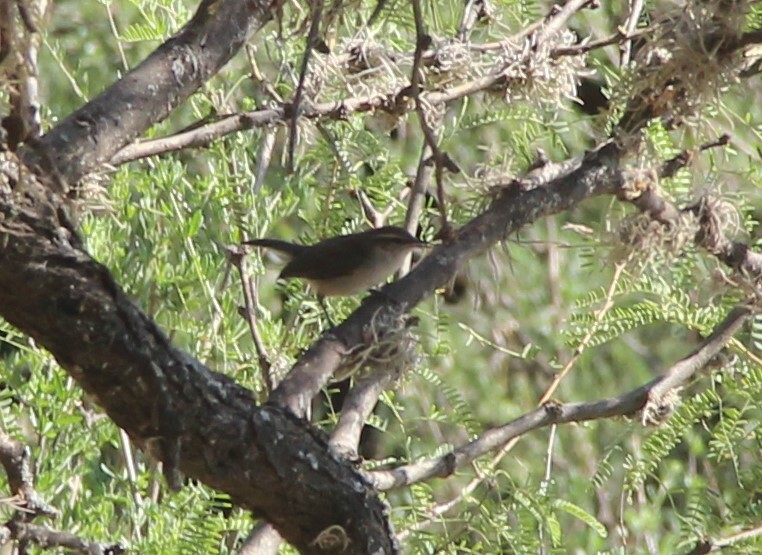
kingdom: Animalia
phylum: Chordata
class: Aves
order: Passeriformes
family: Troglodytidae
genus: Thryomanes
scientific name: Thryomanes bewickii
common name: Bewick's wren
